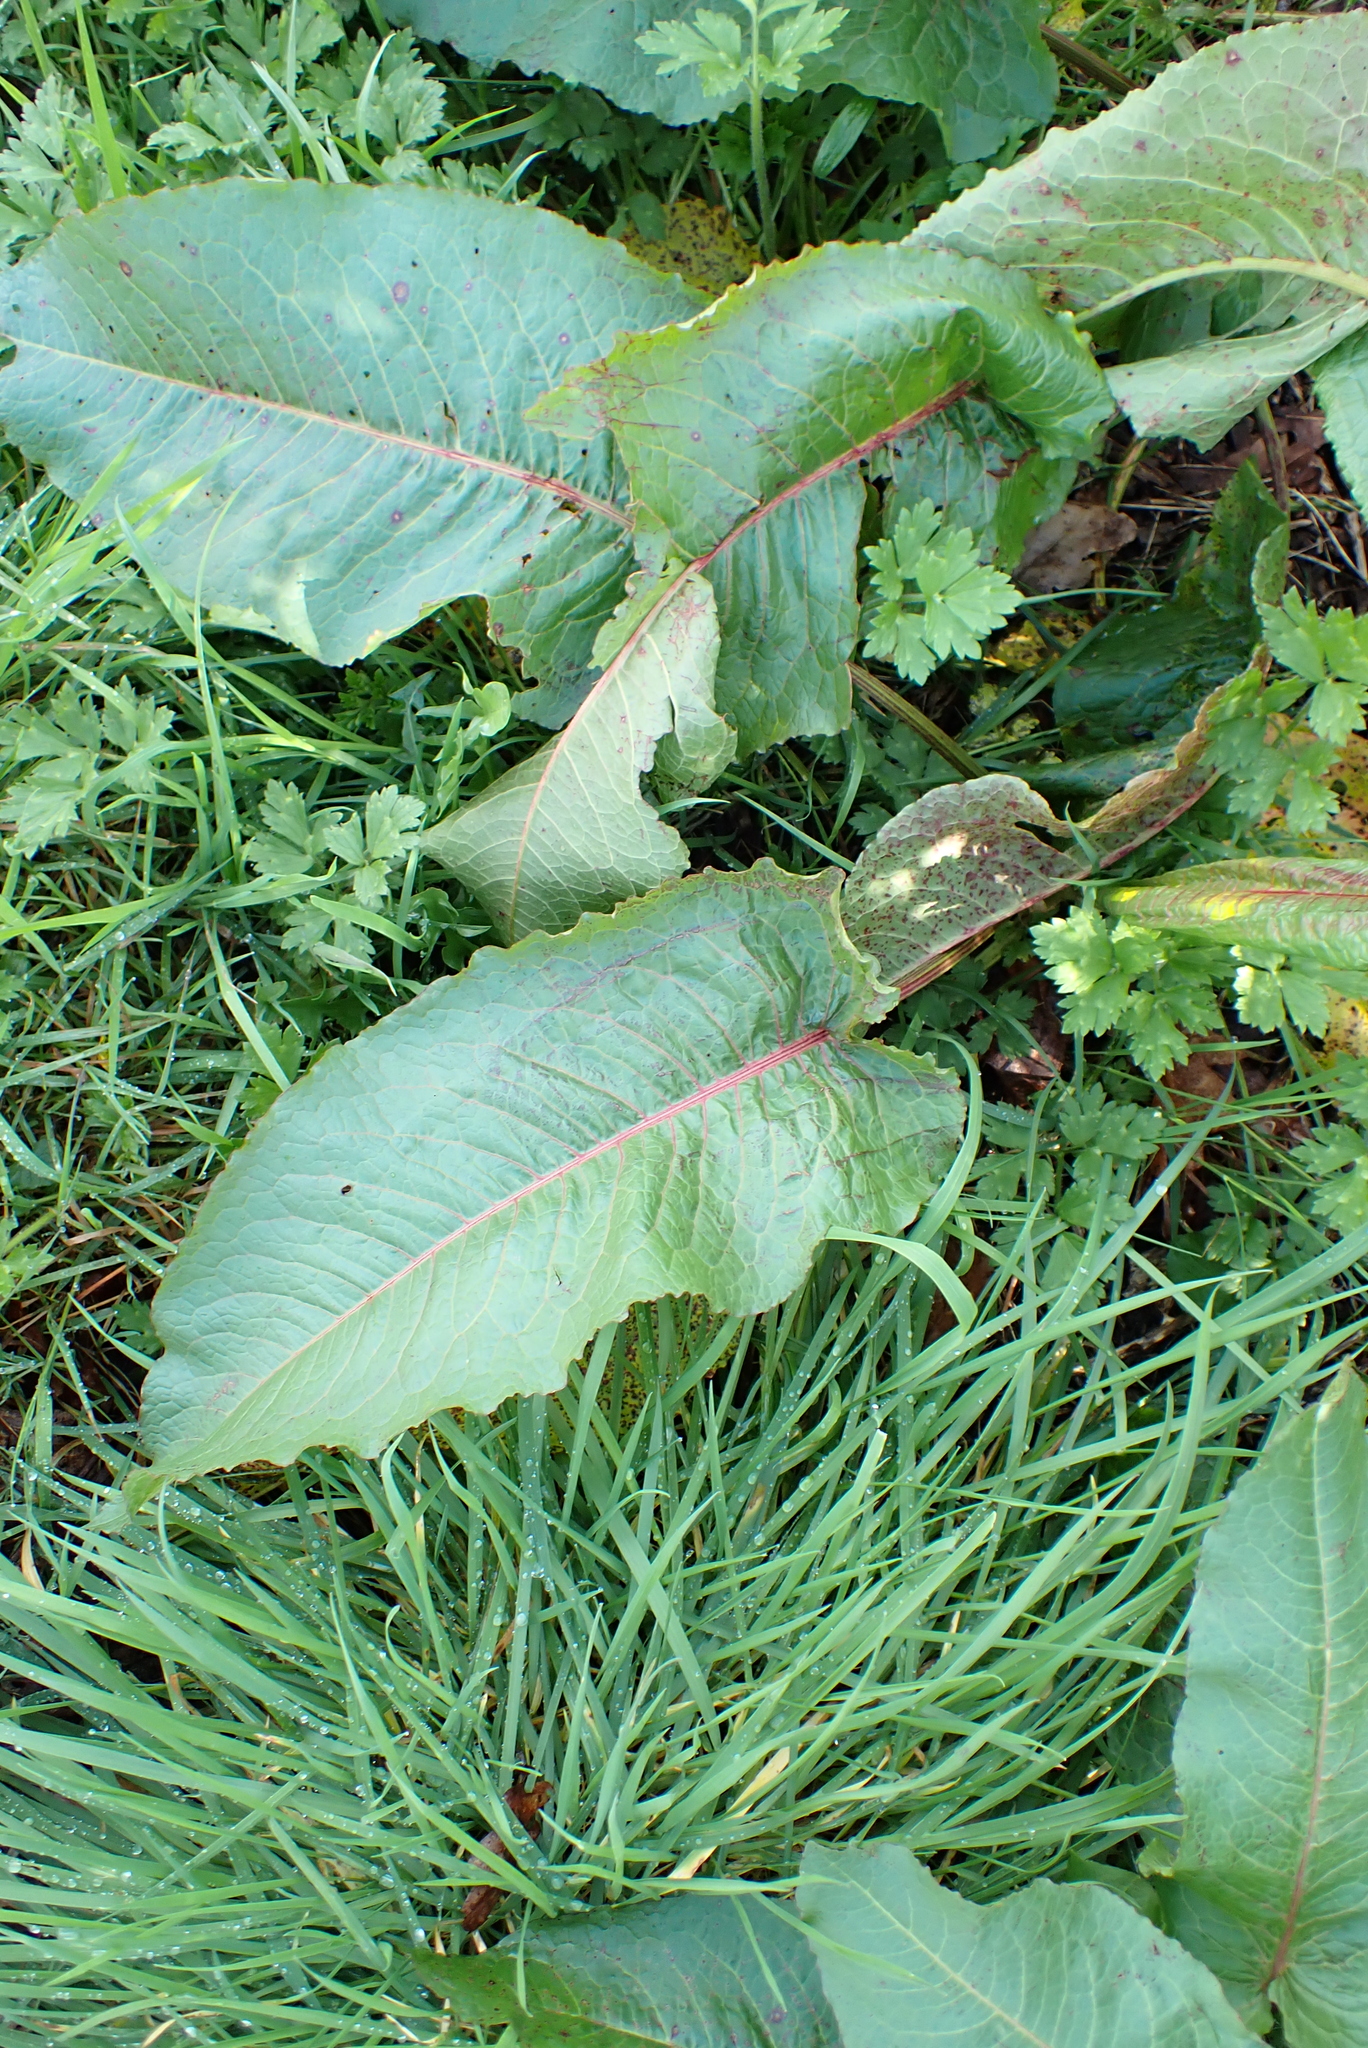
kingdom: Plantae
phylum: Tracheophyta
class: Magnoliopsida
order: Caryophyllales
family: Polygonaceae
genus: Rumex
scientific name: Rumex obtusifolius
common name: Bitter dock
